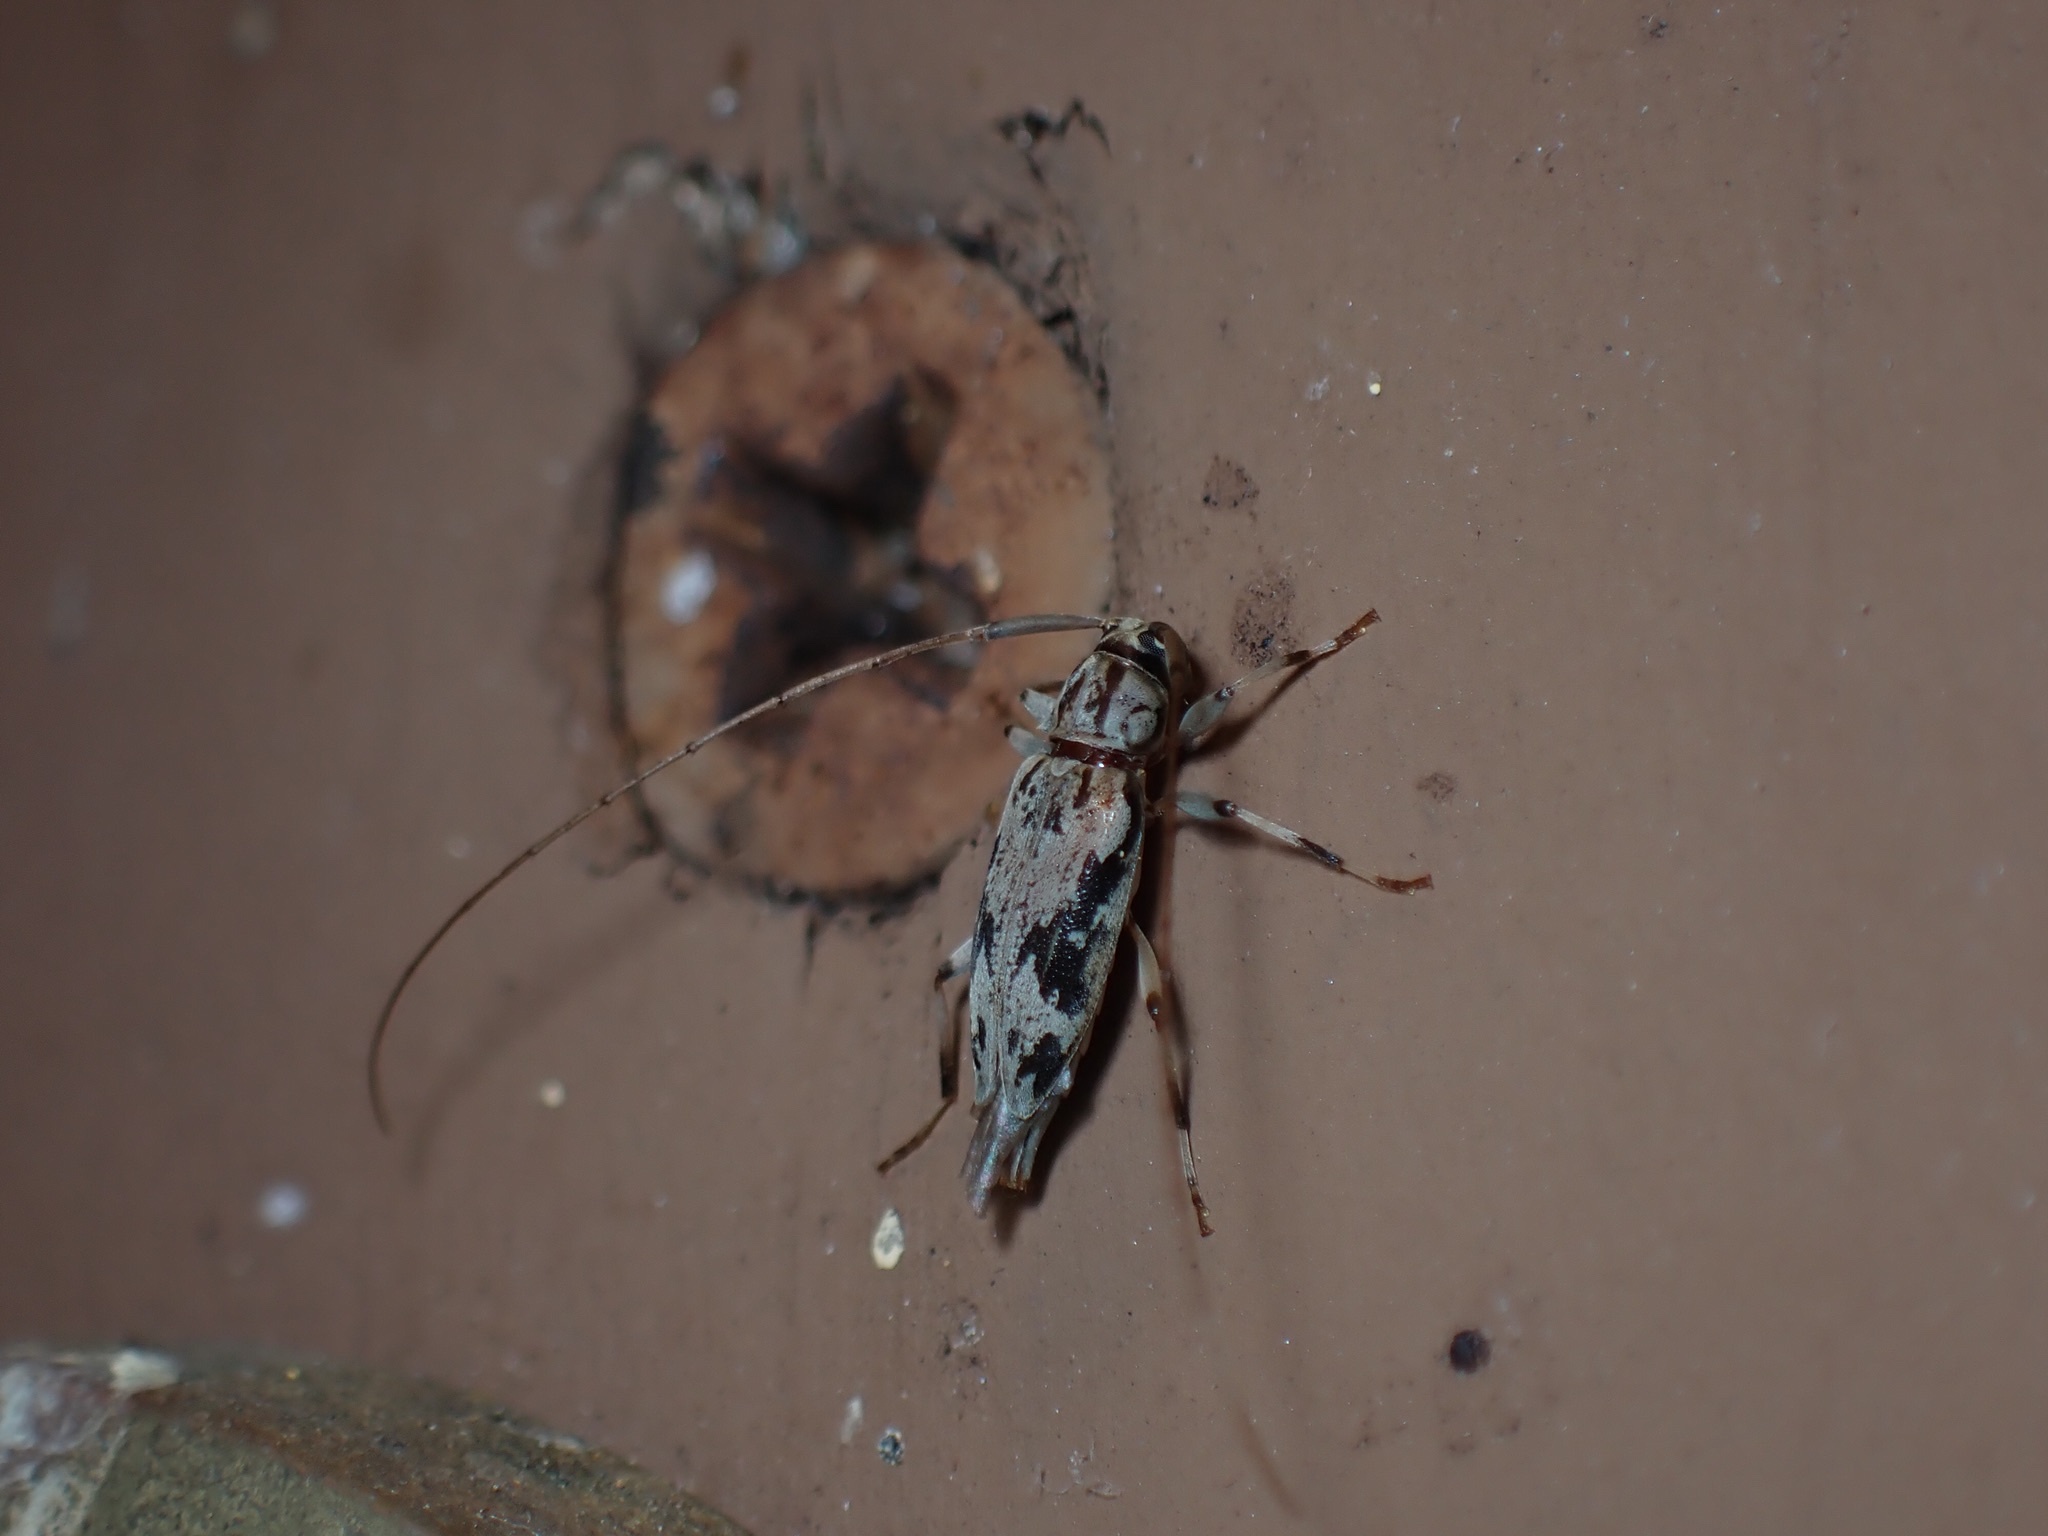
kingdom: Animalia
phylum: Arthropoda
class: Insecta
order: Coleoptera
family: Cerambycidae
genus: Lepturges
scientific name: Lepturges angulatus
